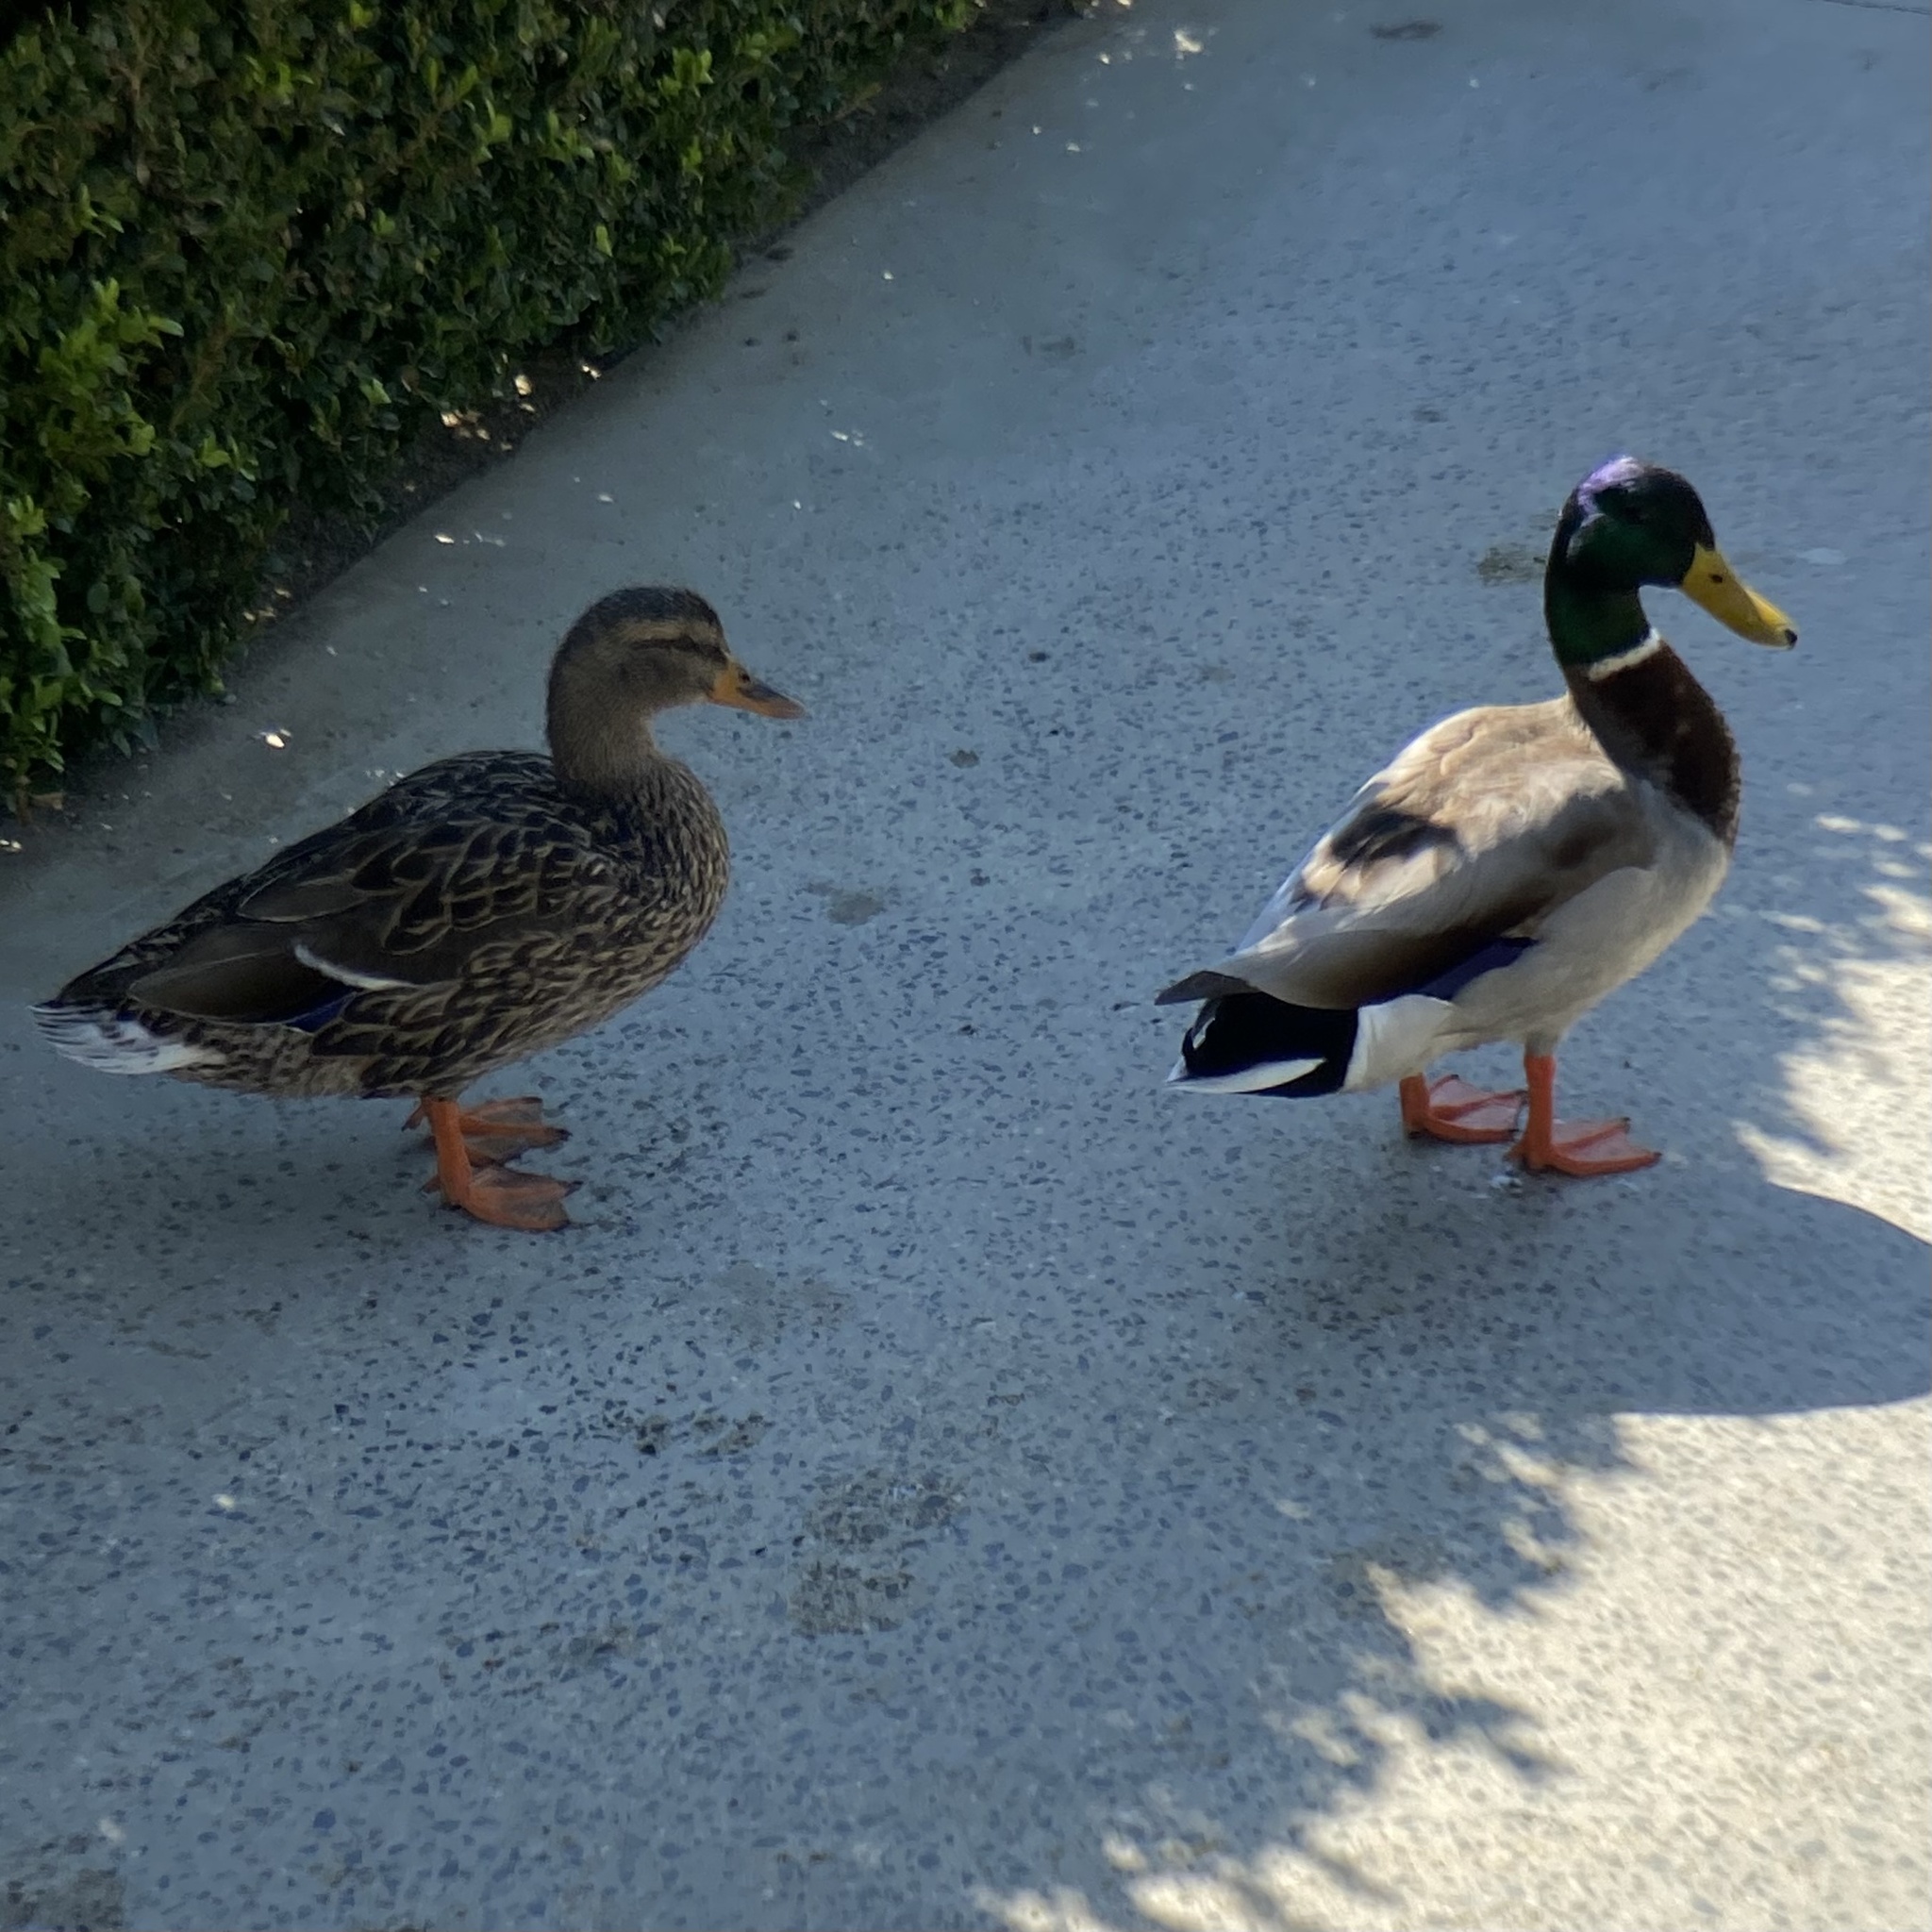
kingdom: Animalia
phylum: Chordata
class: Aves
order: Anseriformes
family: Anatidae
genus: Anas
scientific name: Anas platyrhynchos
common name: Mallard
